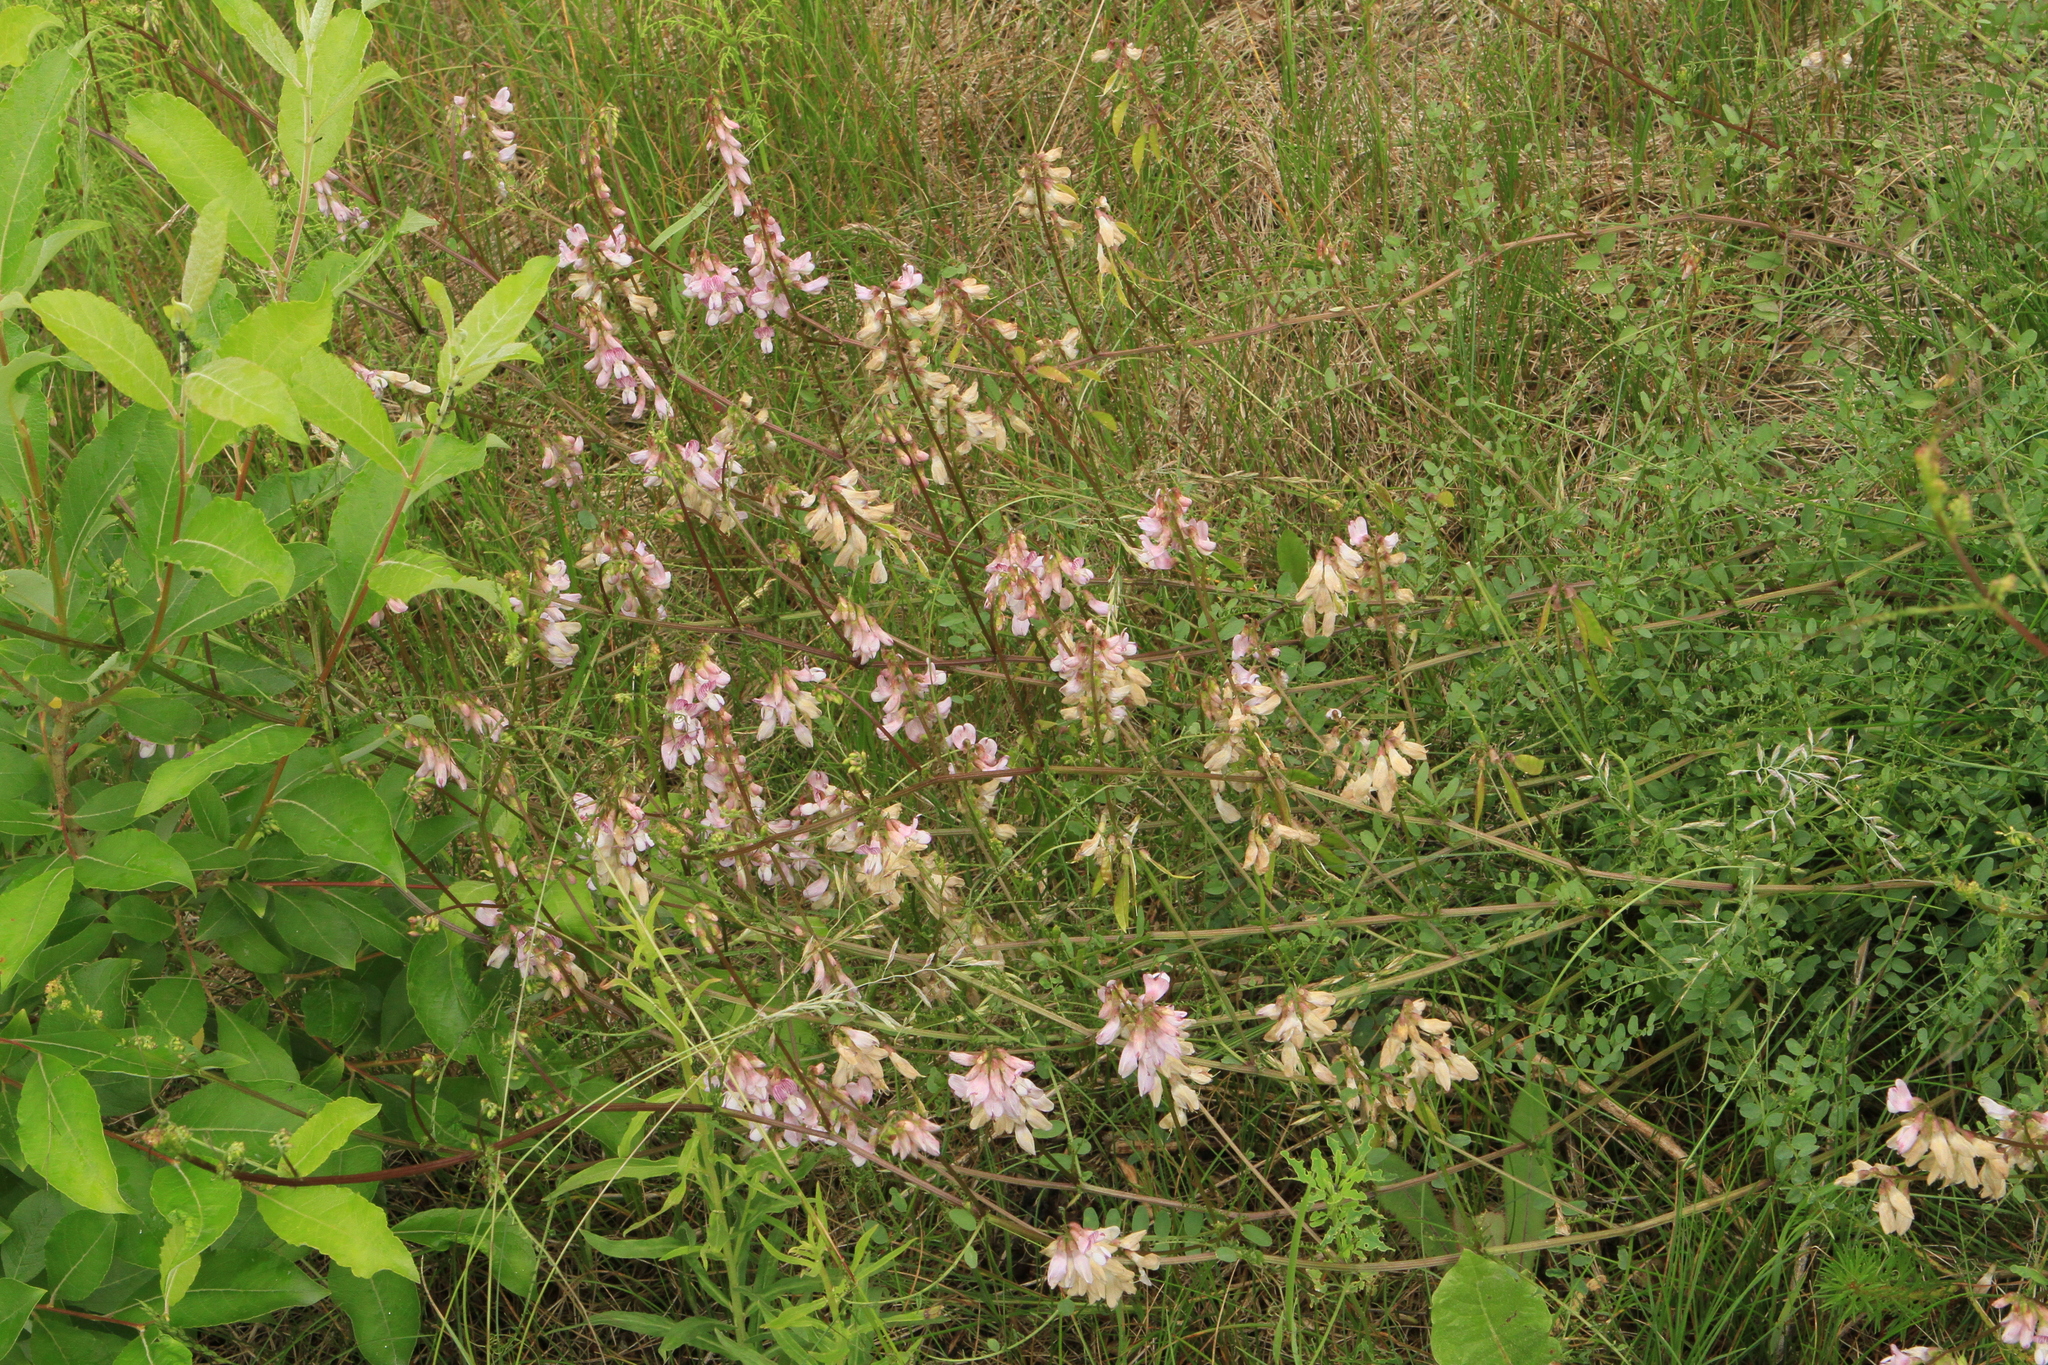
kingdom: Plantae
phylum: Tracheophyta
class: Magnoliopsida
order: Fabales
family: Fabaceae
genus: Vicia
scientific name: Vicia sylvatica
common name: Wood vetch
